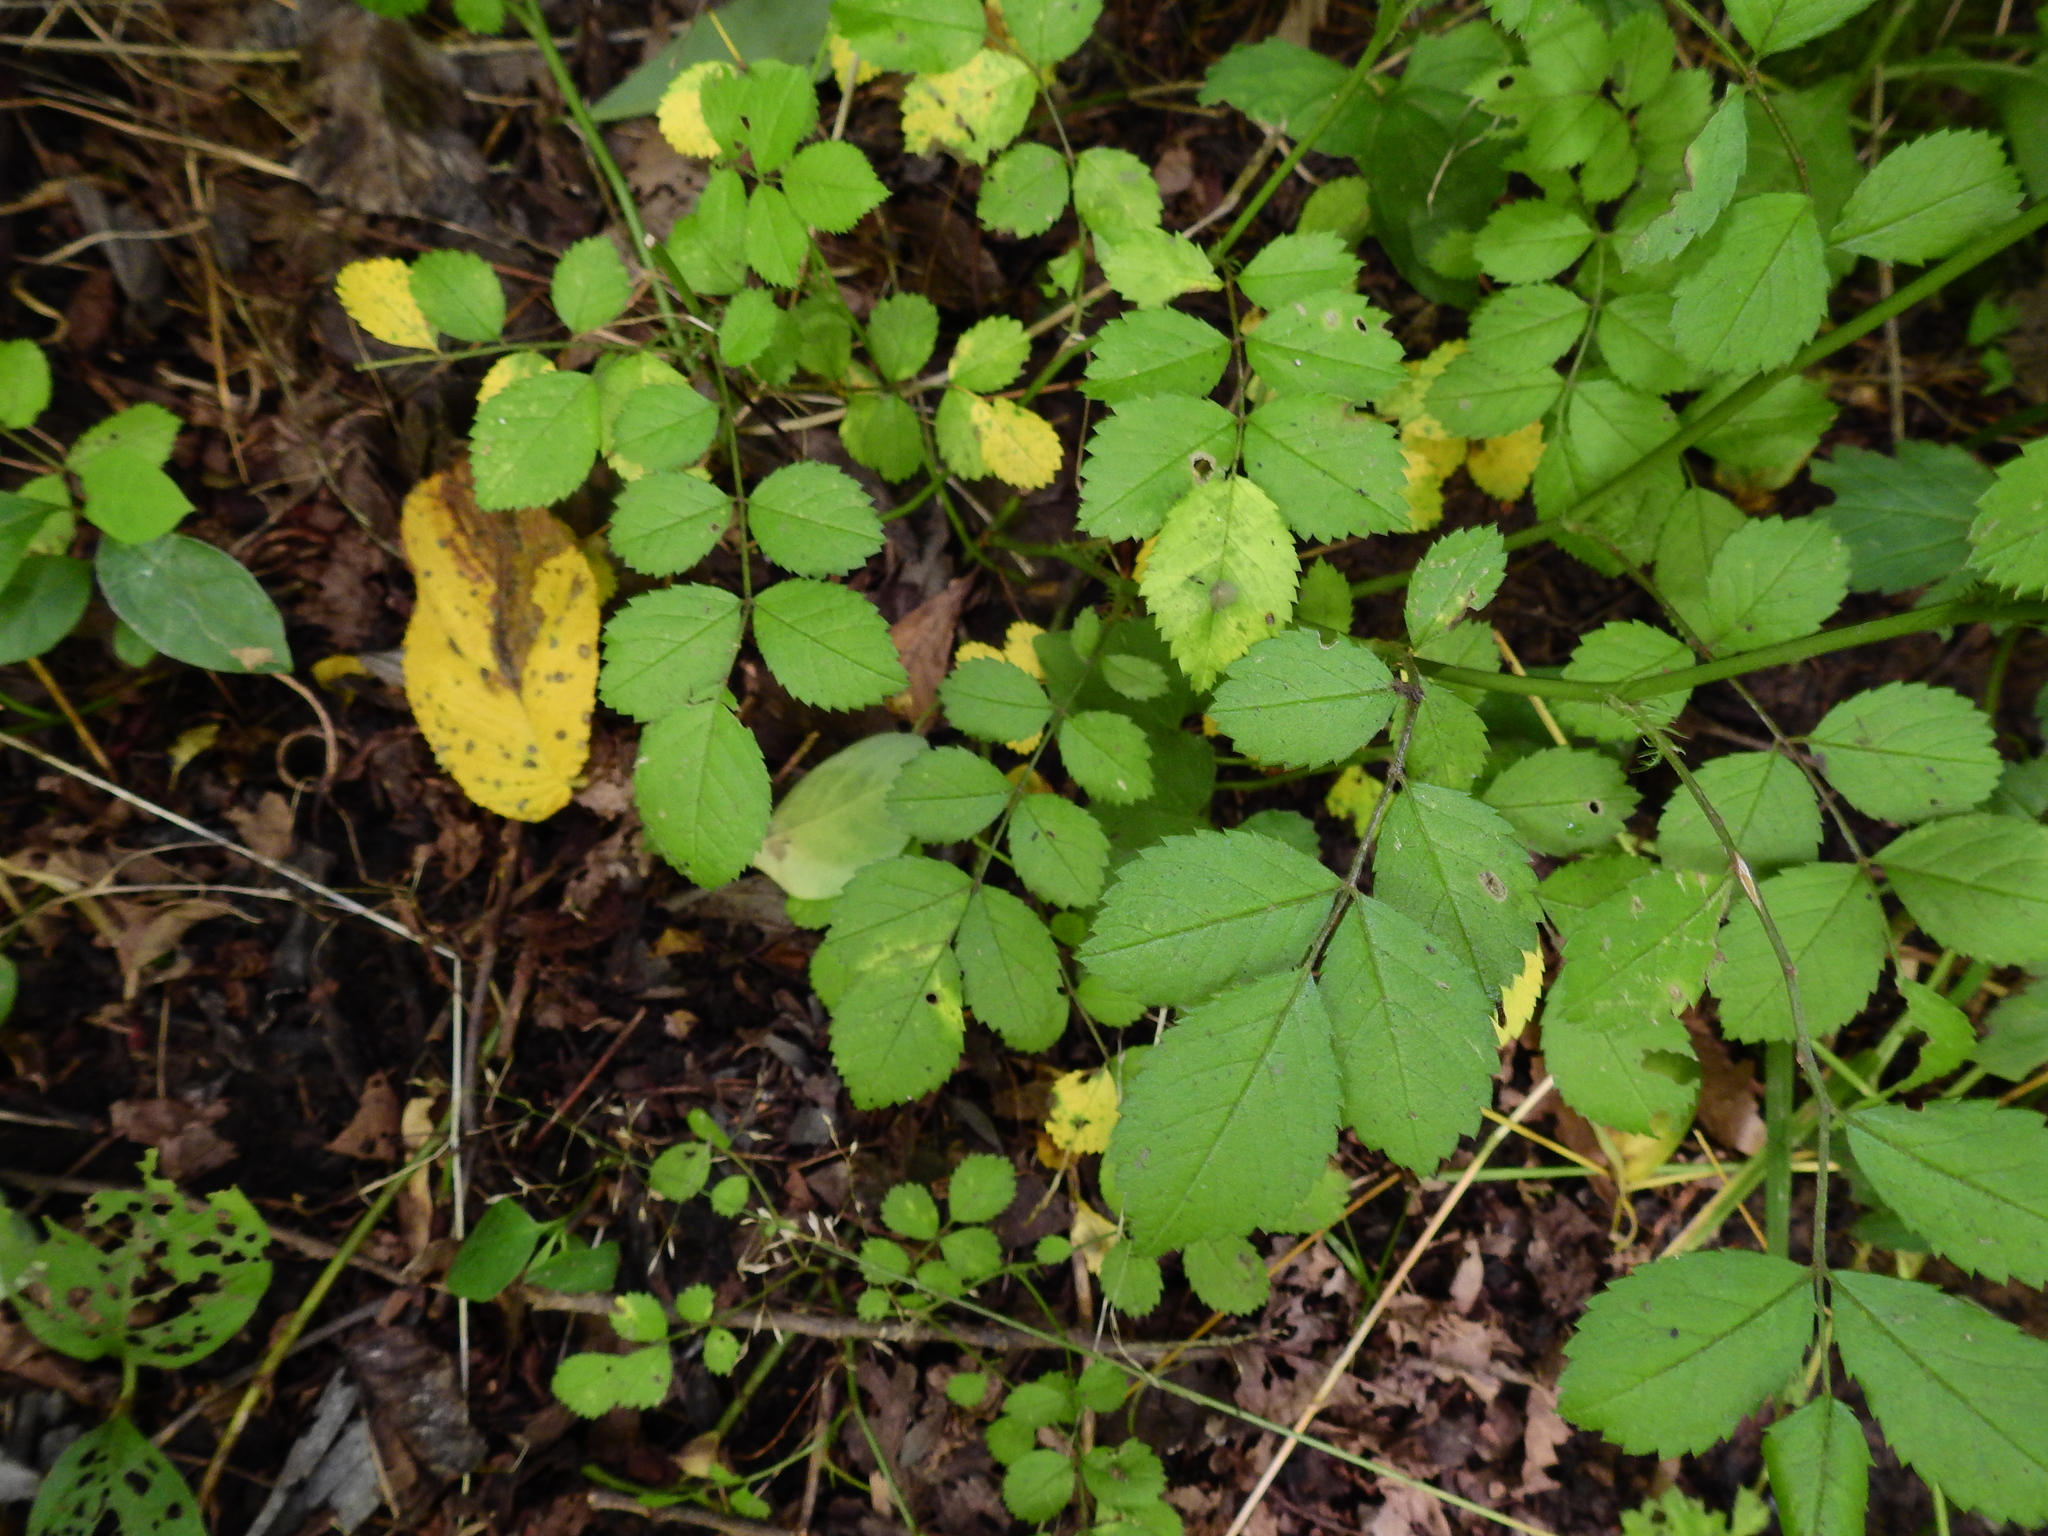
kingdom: Plantae
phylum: Tracheophyta
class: Magnoliopsida
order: Rosales
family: Rosaceae
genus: Rosa
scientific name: Rosa multiflora
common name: Multiflora rose
